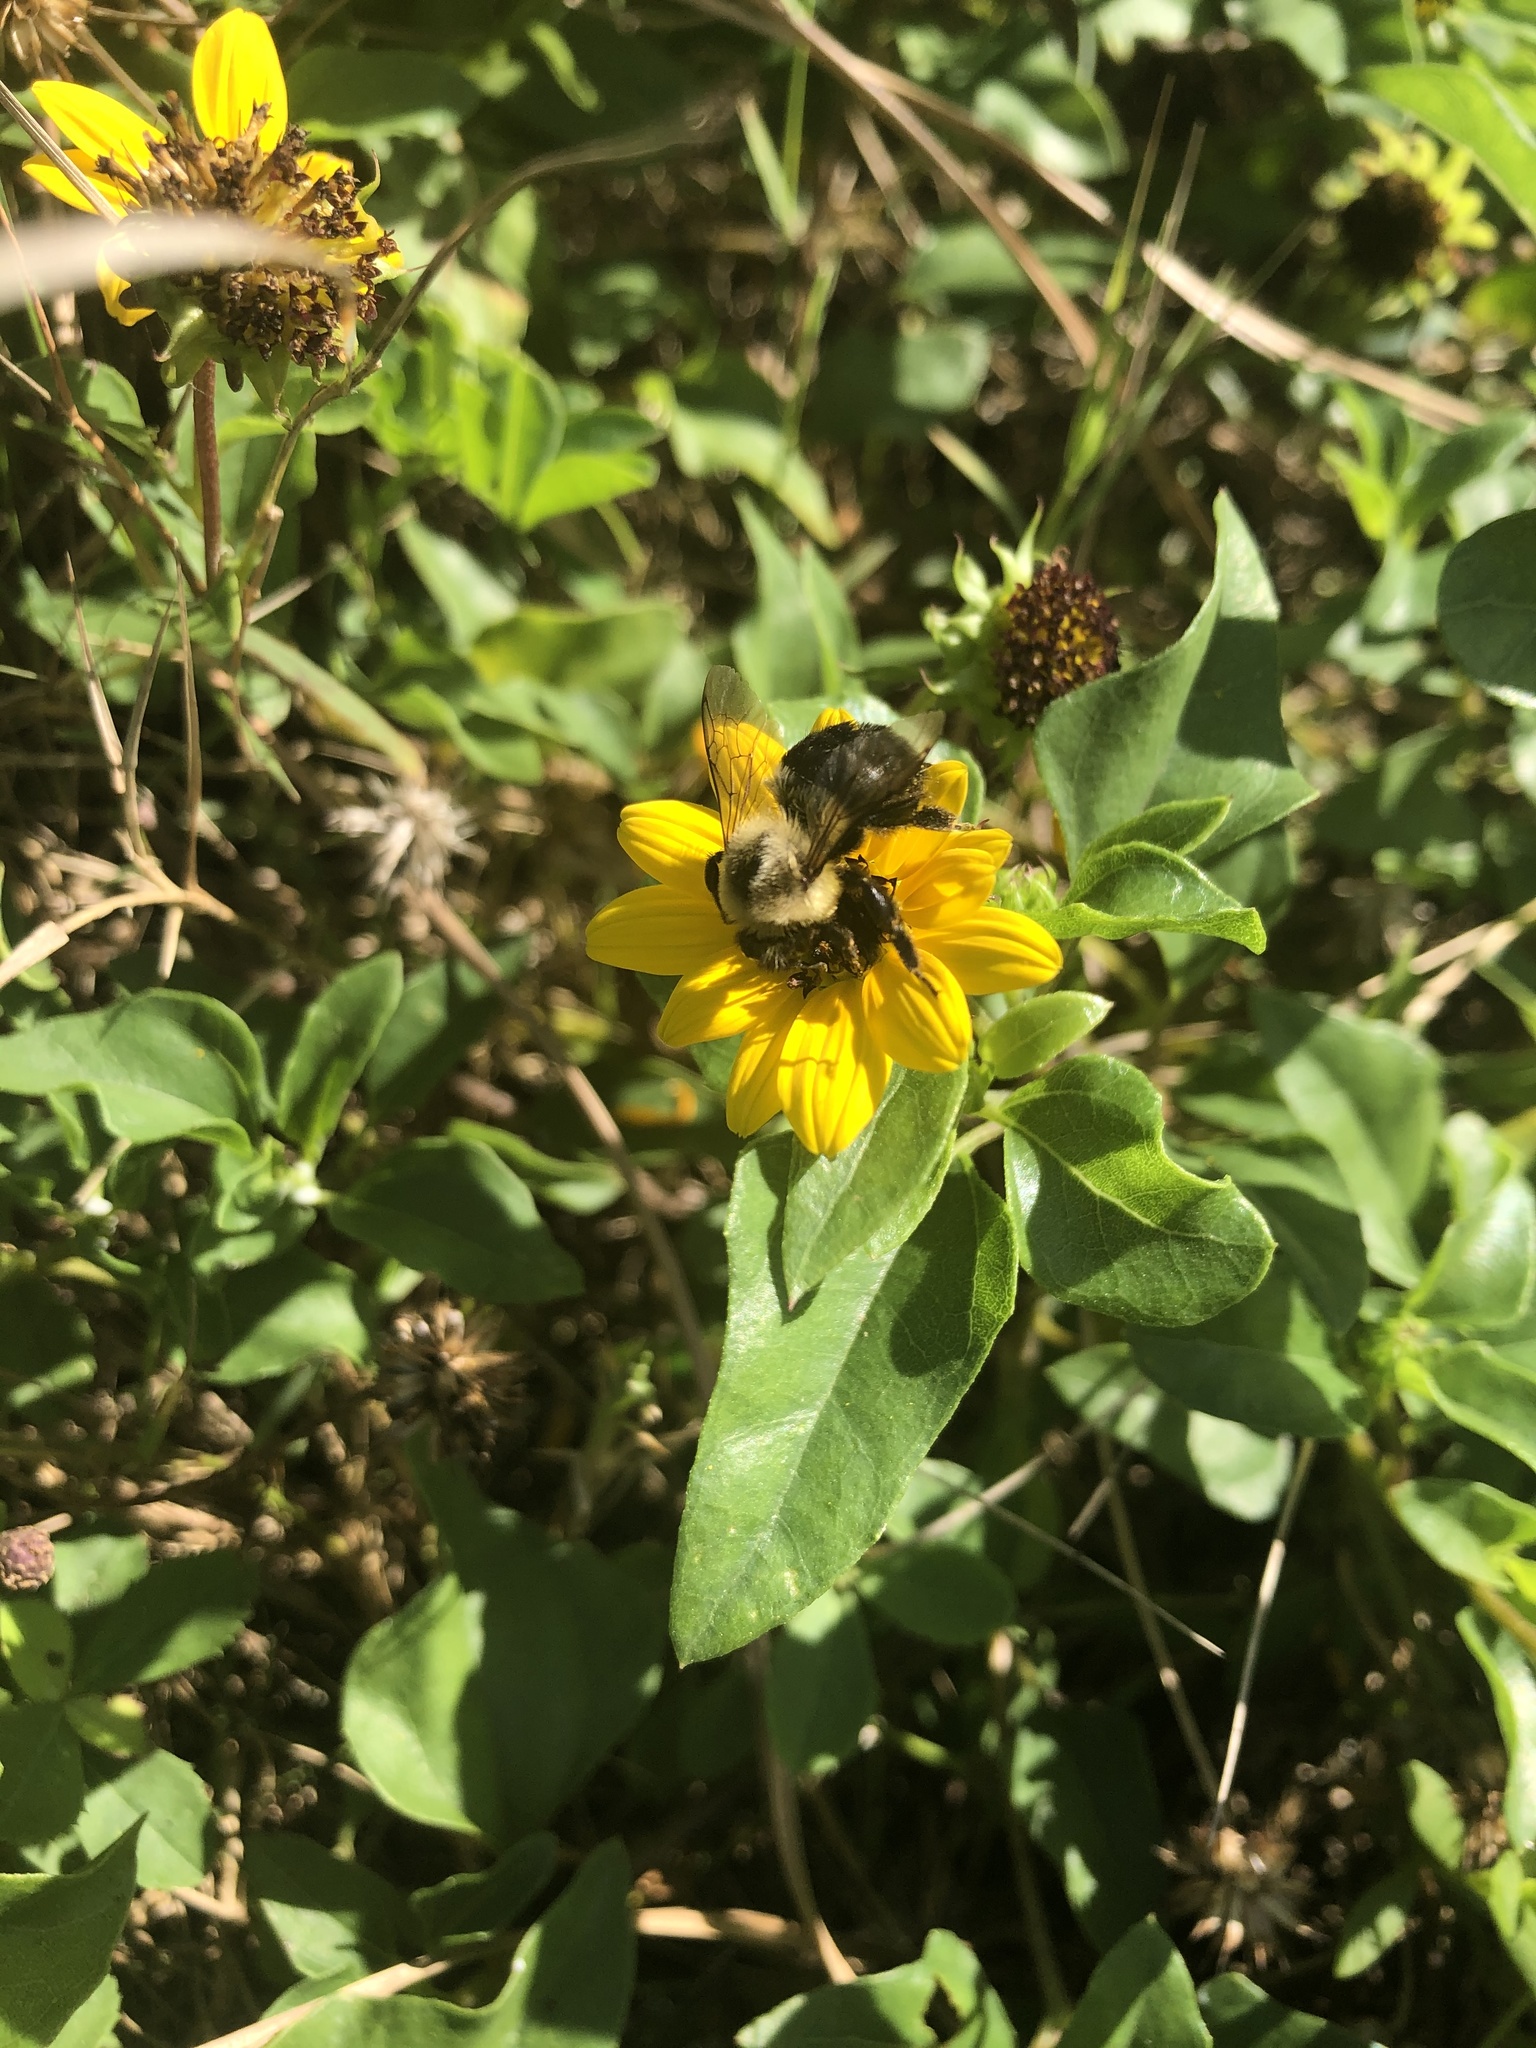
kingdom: Animalia
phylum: Arthropoda
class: Insecta
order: Hymenoptera
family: Apidae
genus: Bombus
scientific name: Bombus impatiens
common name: Common eastern bumble bee
